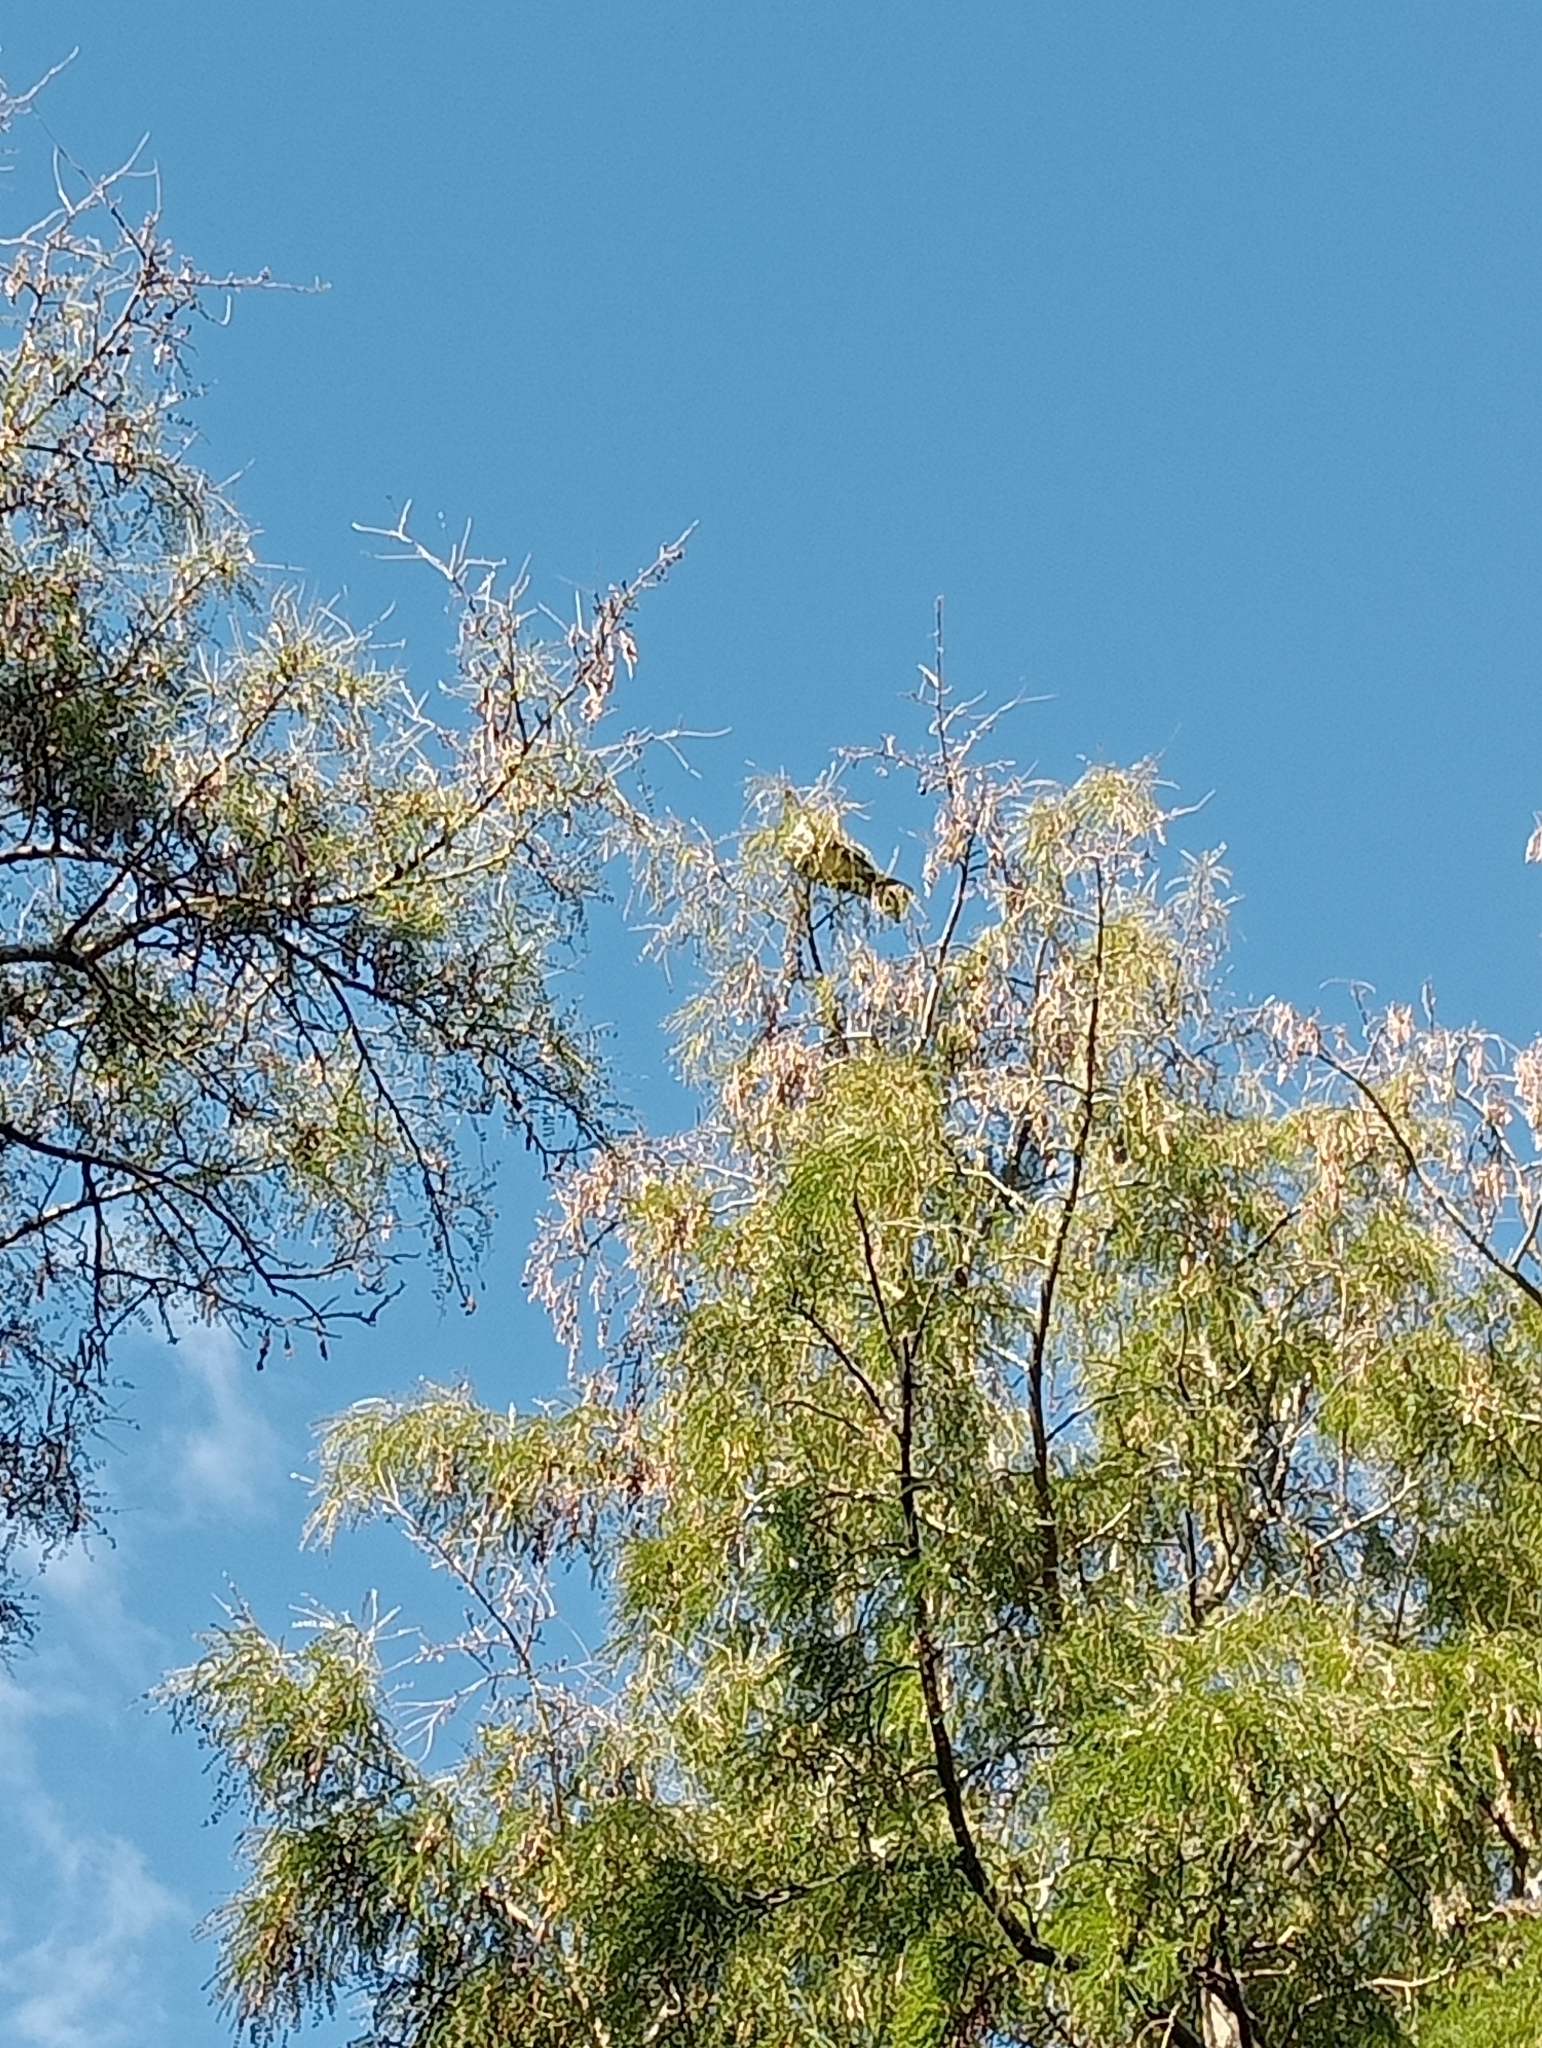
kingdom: Animalia
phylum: Chordata
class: Aves
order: Columbiformes
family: Columbidae
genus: Hemiphaga
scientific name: Hemiphaga novaeseelandiae
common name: New zealand pigeon
